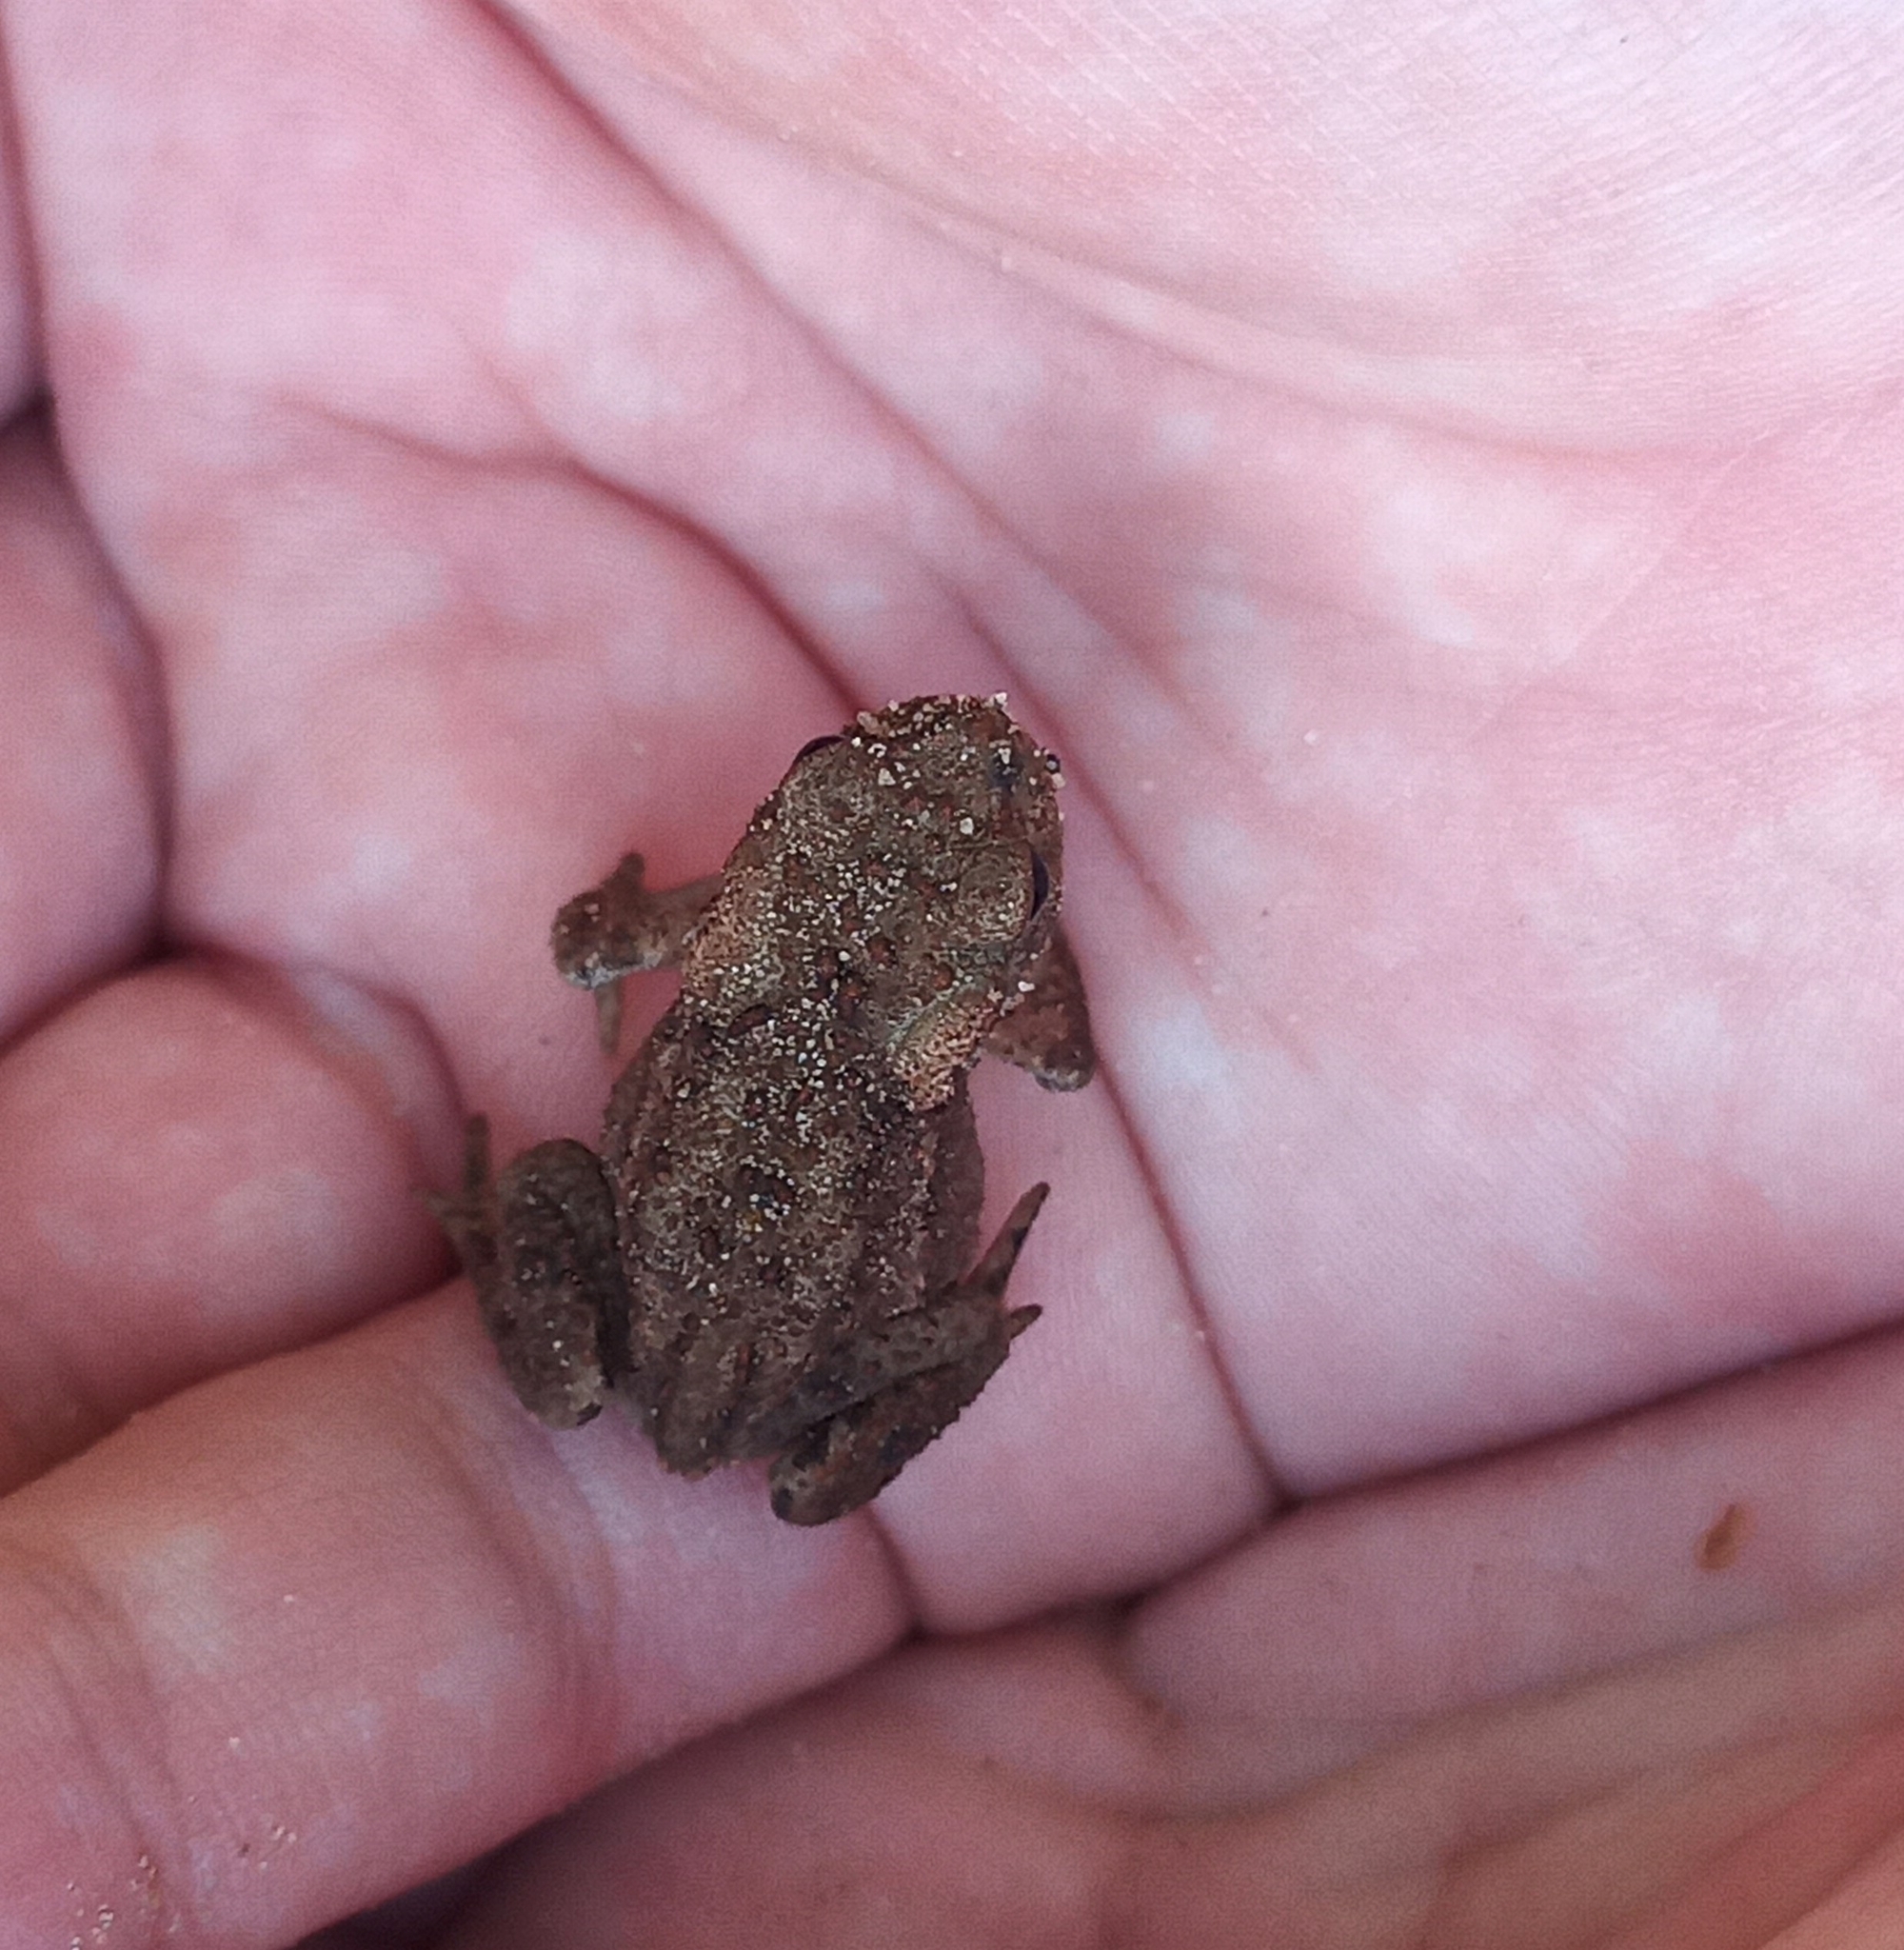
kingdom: Animalia
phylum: Chordata
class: Amphibia
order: Anura
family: Bufonidae
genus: Bufo
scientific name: Bufo bufo
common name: Common toad
